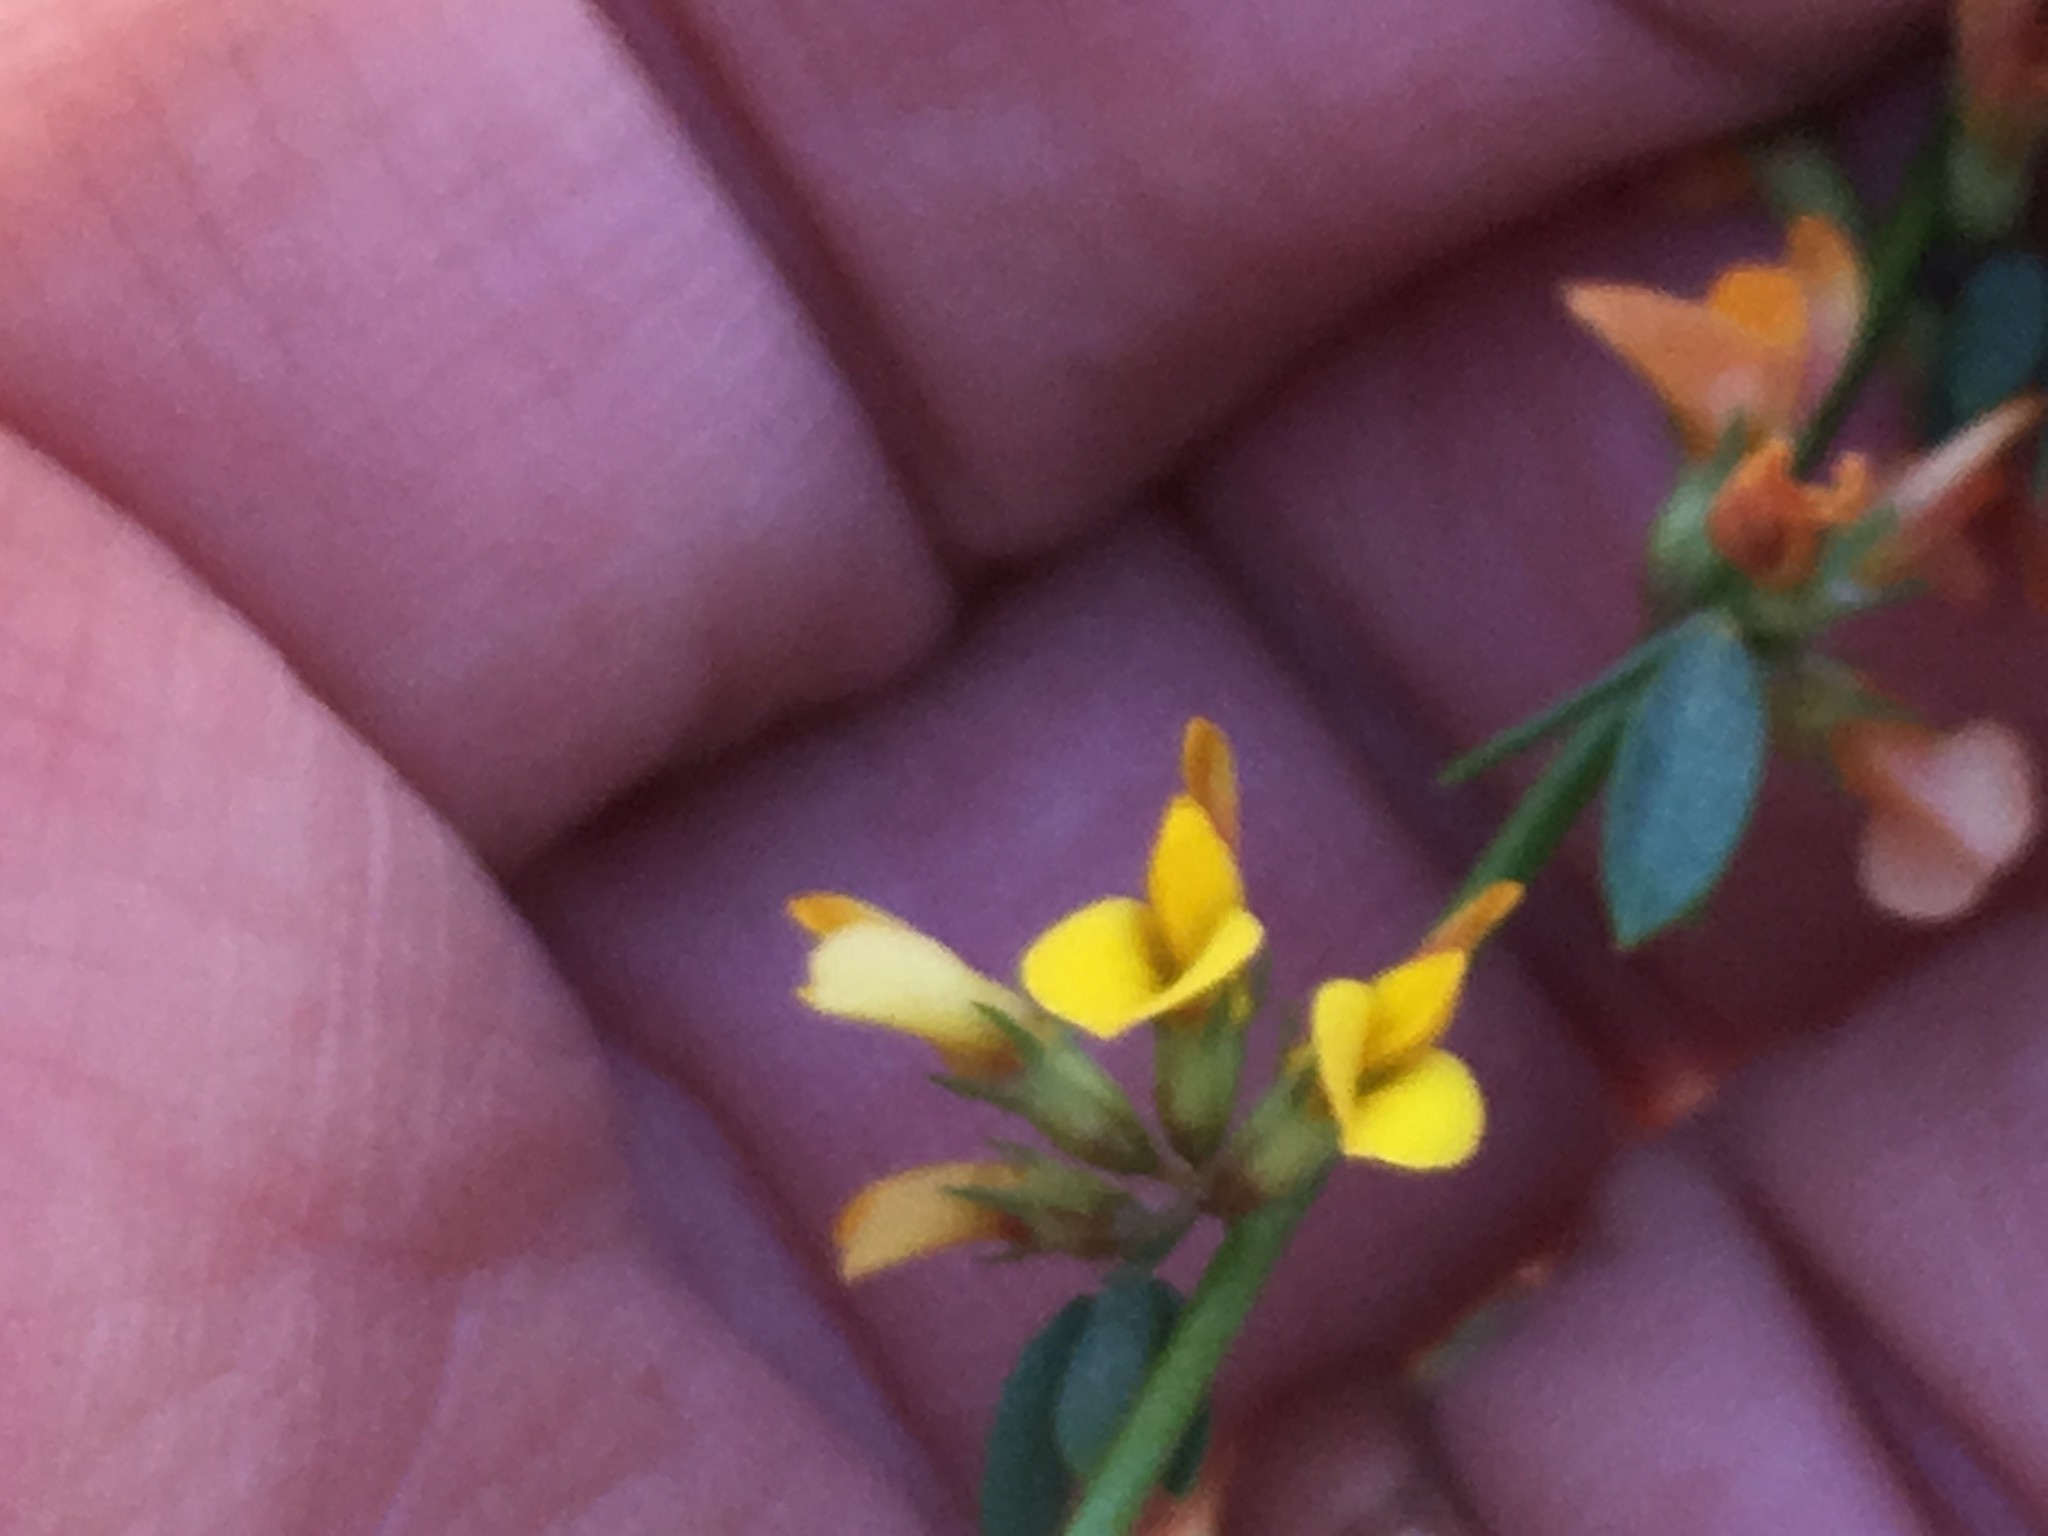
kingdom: Plantae
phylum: Tracheophyta
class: Magnoliopsida
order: Fabales
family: Fabaceae
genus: Acmispon
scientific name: Acmispon glaber
